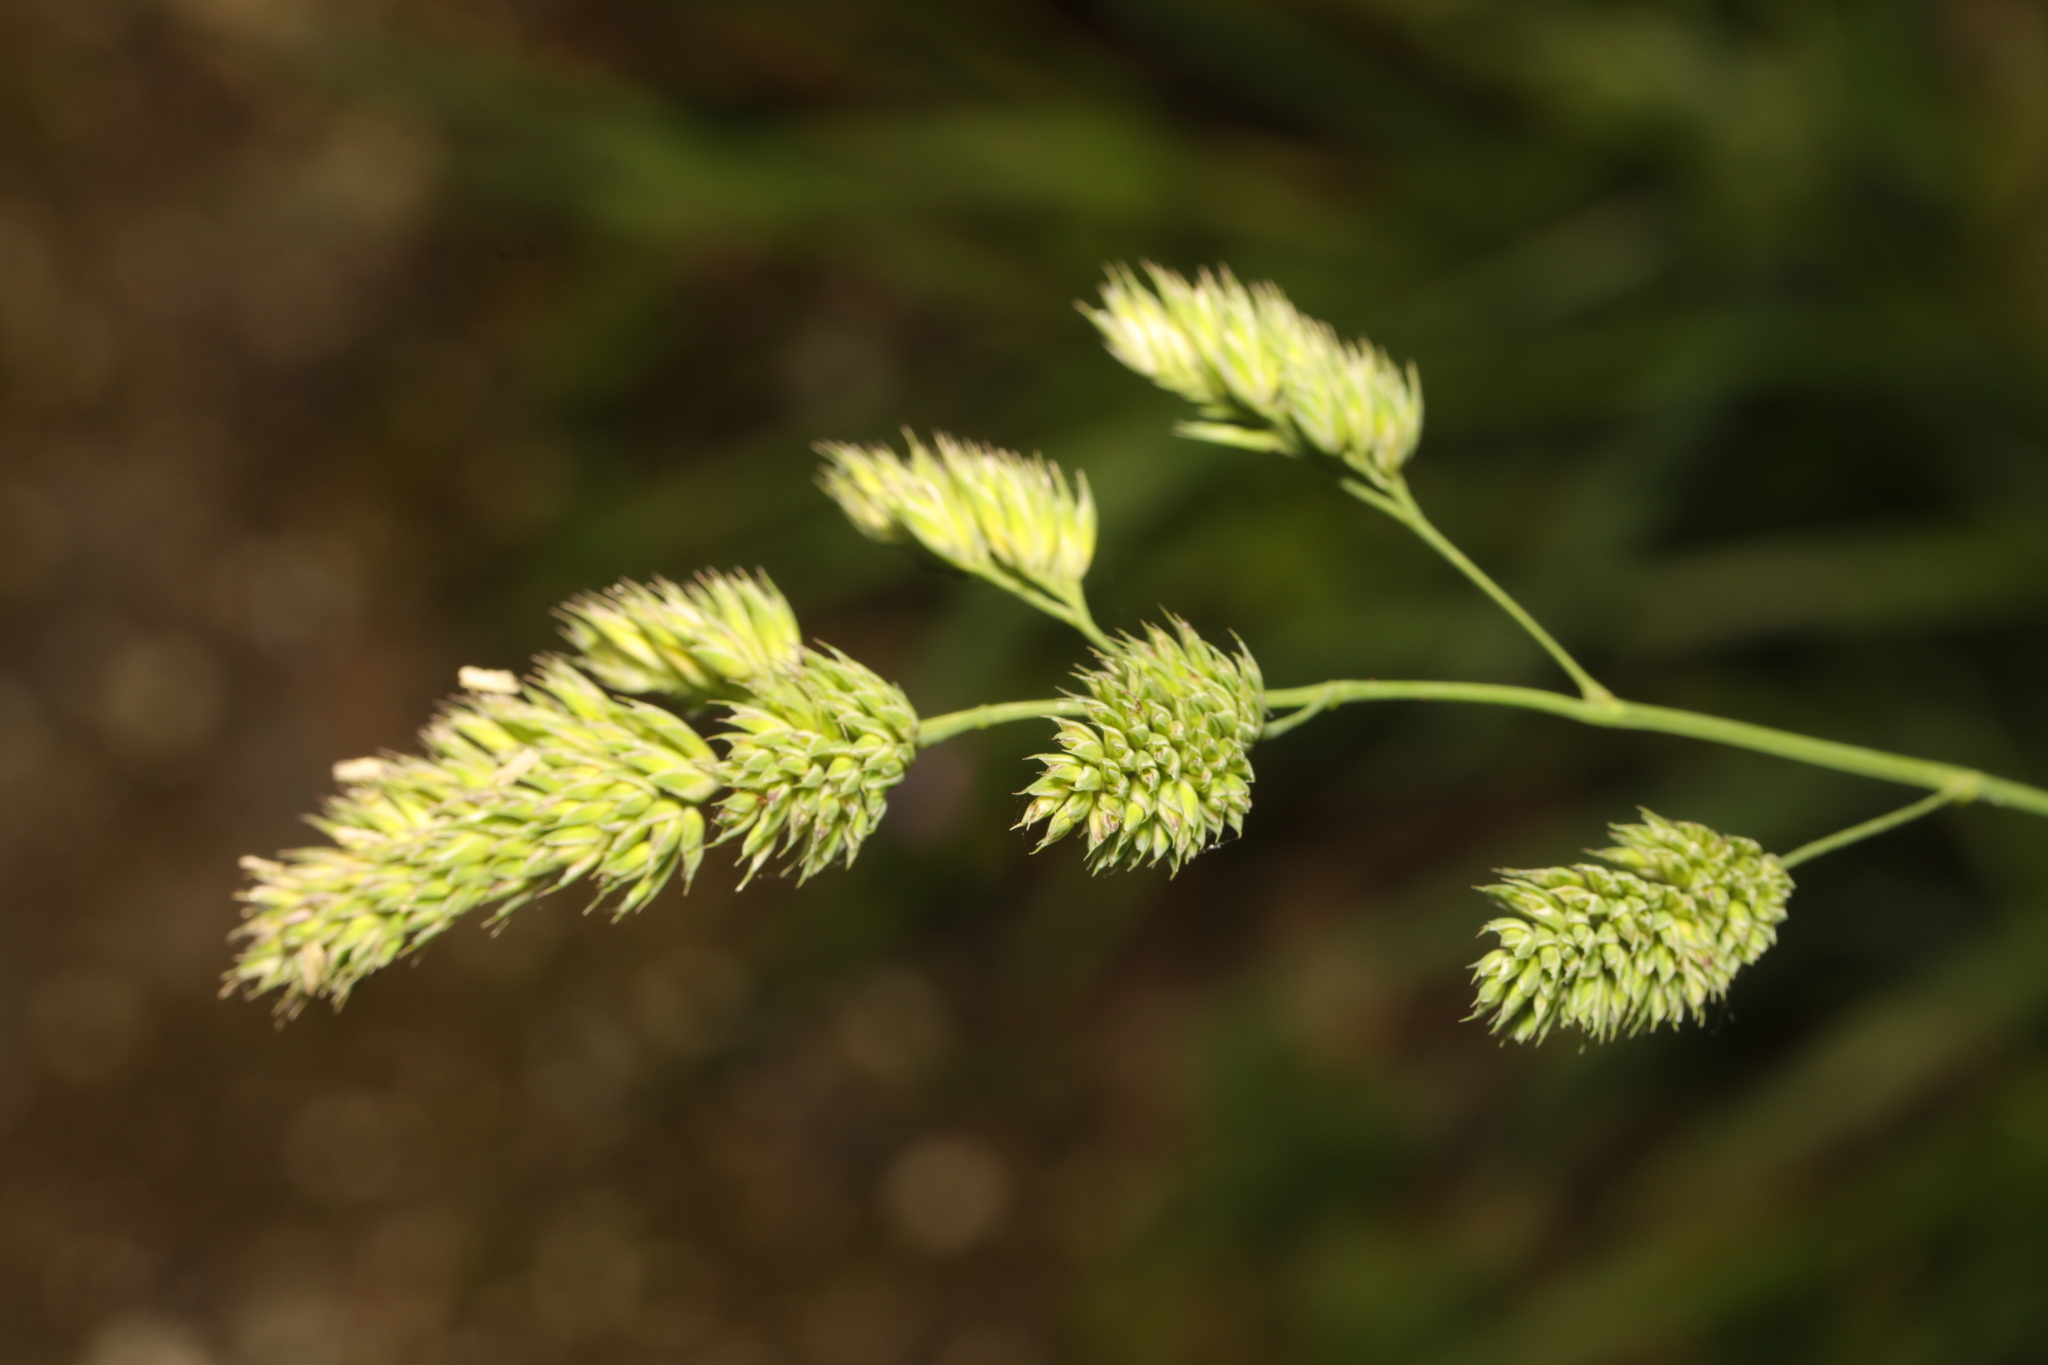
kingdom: Plantae
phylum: Tracheophyta
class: Liliopsida
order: Poales
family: Poaceae
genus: Dactylis
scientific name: Dactylis glomerata
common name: Orchardgrass
